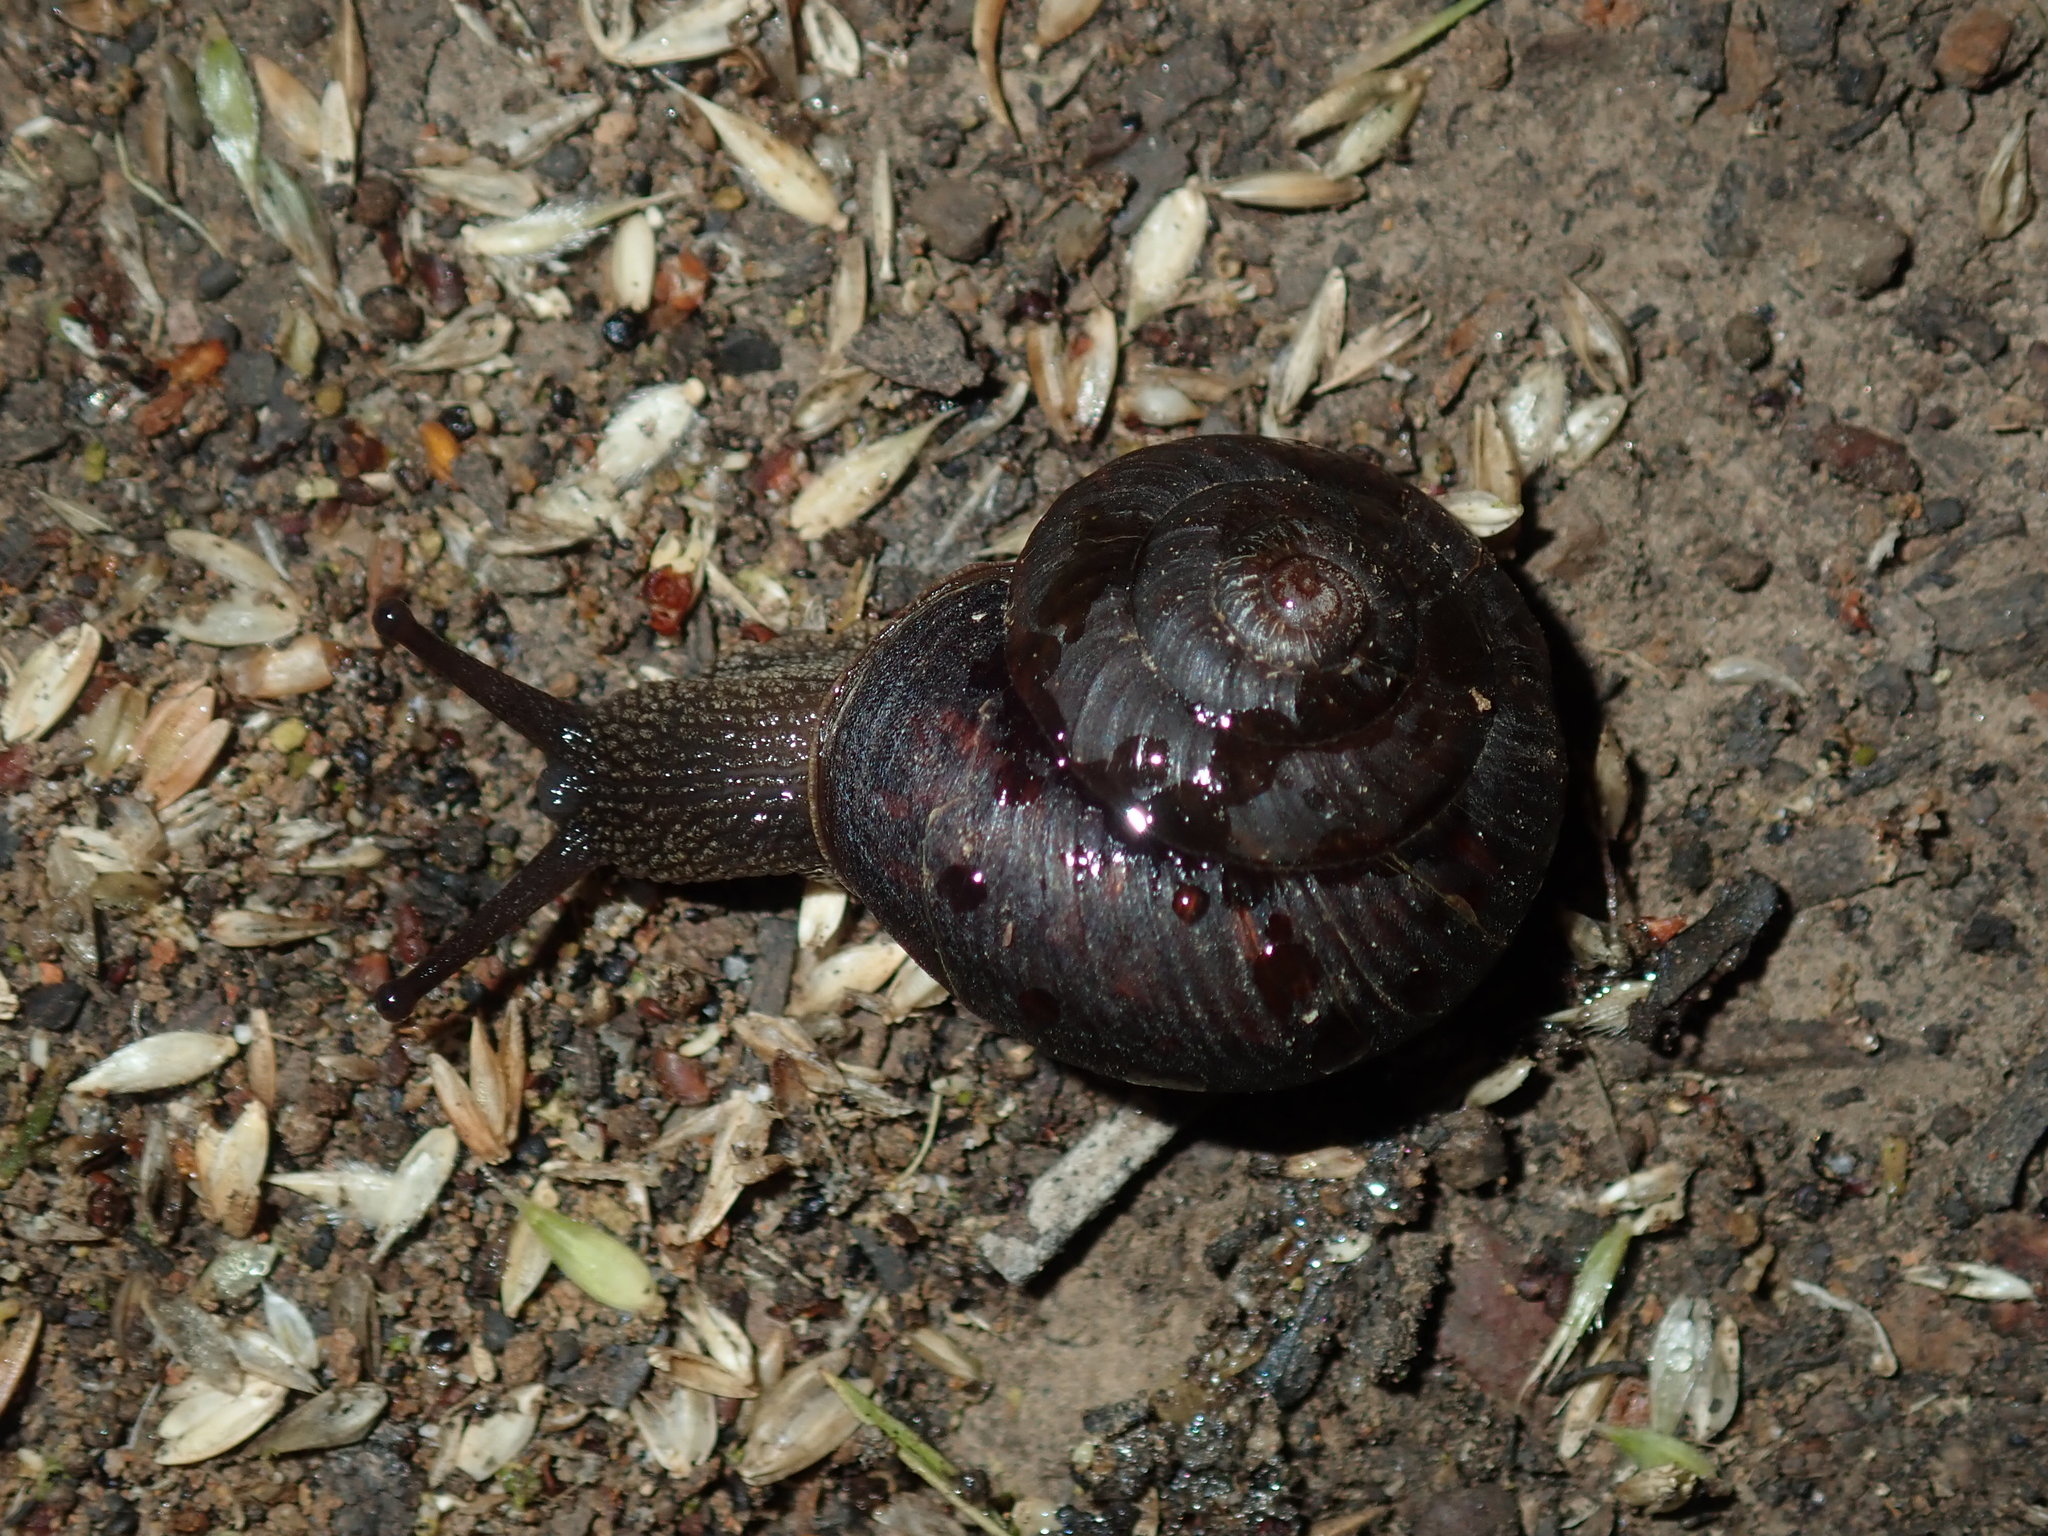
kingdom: Animalia
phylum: Mollusca
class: Gastropoda
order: Stylommatophora
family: Camaenidae
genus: Sauroconcha
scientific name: Sauroconcha sheai
